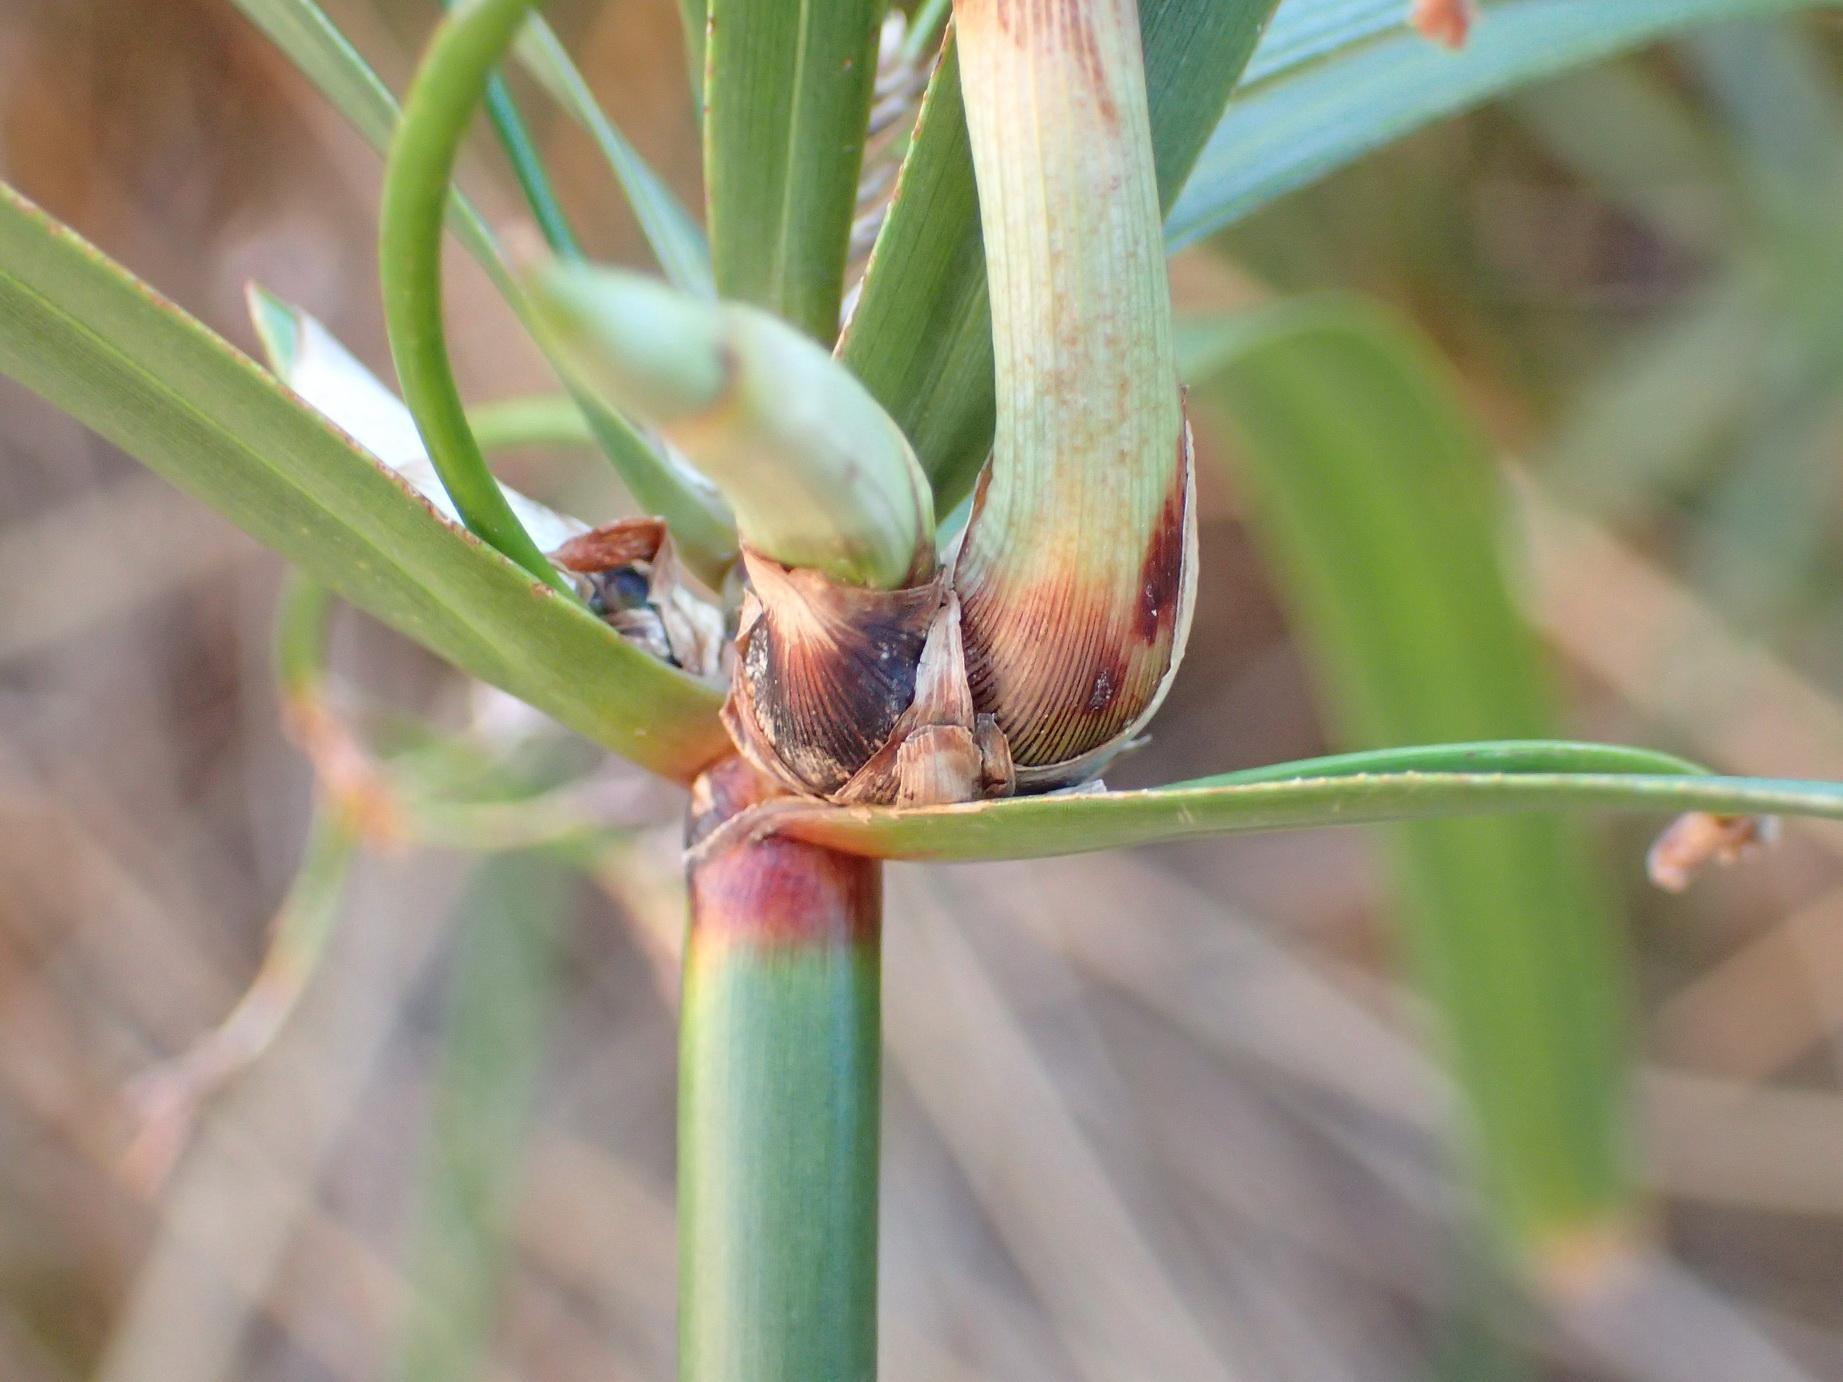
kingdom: Plantae
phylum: Tracheophyta
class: Liliopsida
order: Poales
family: Cyperaceae
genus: Cyperus
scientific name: Cyperus textilis
